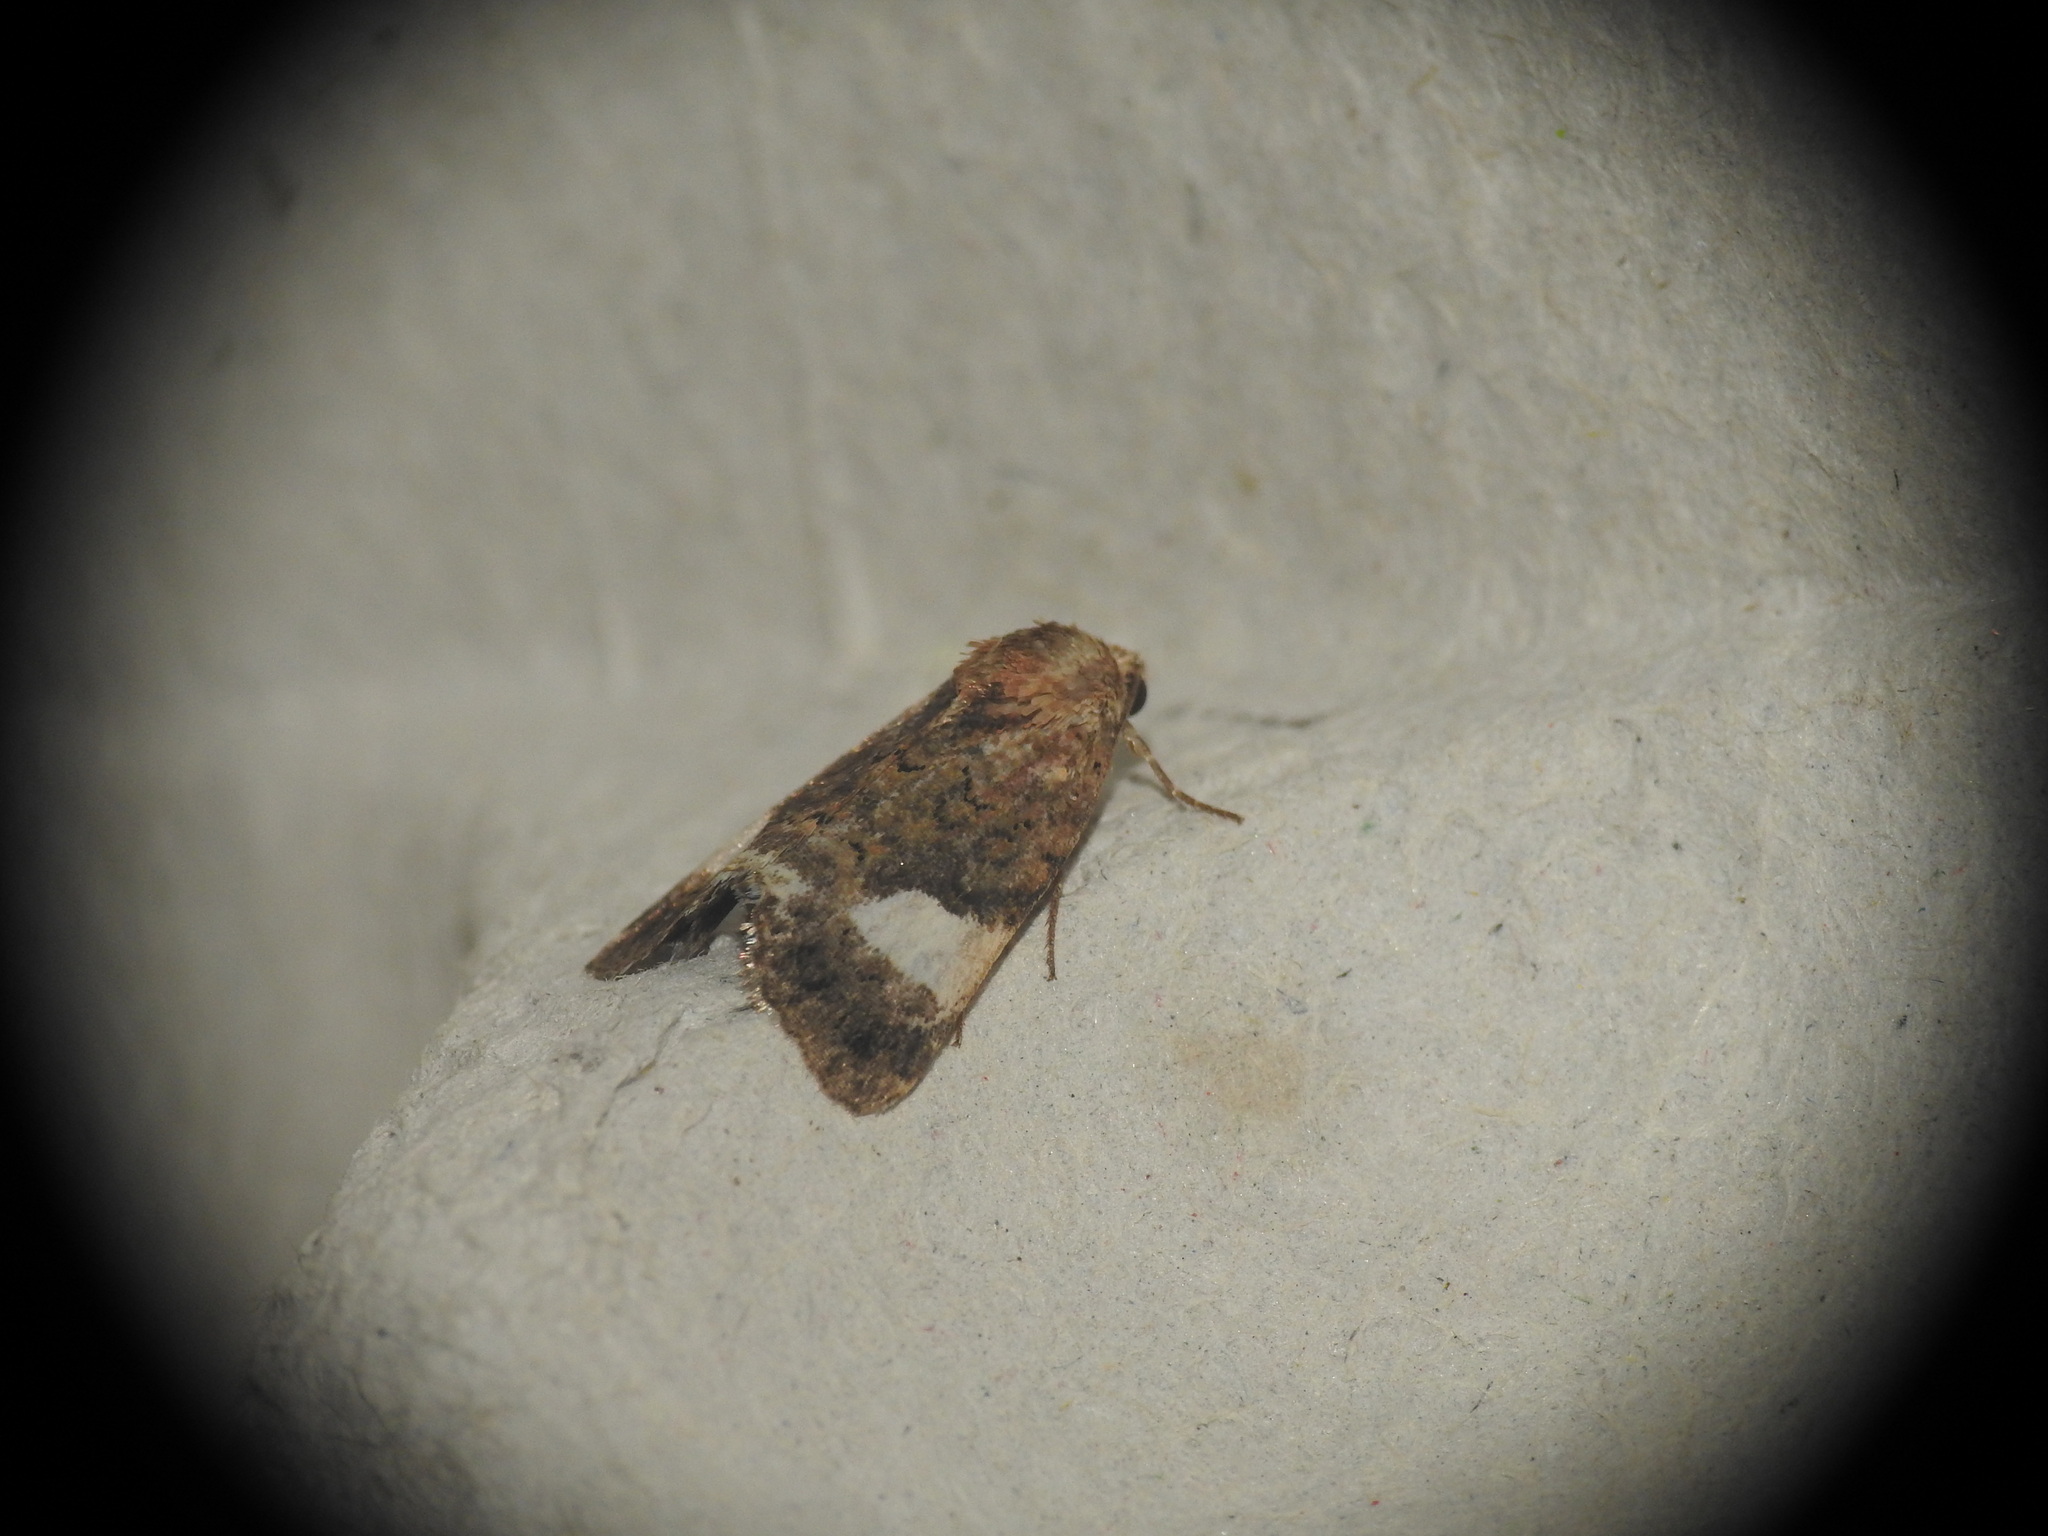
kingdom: Animalia
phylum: Arthropoda
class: Insecta
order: Lepidoptera
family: Erebidae
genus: Tyta
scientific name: Tyta luctuosa
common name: Four-spotted
